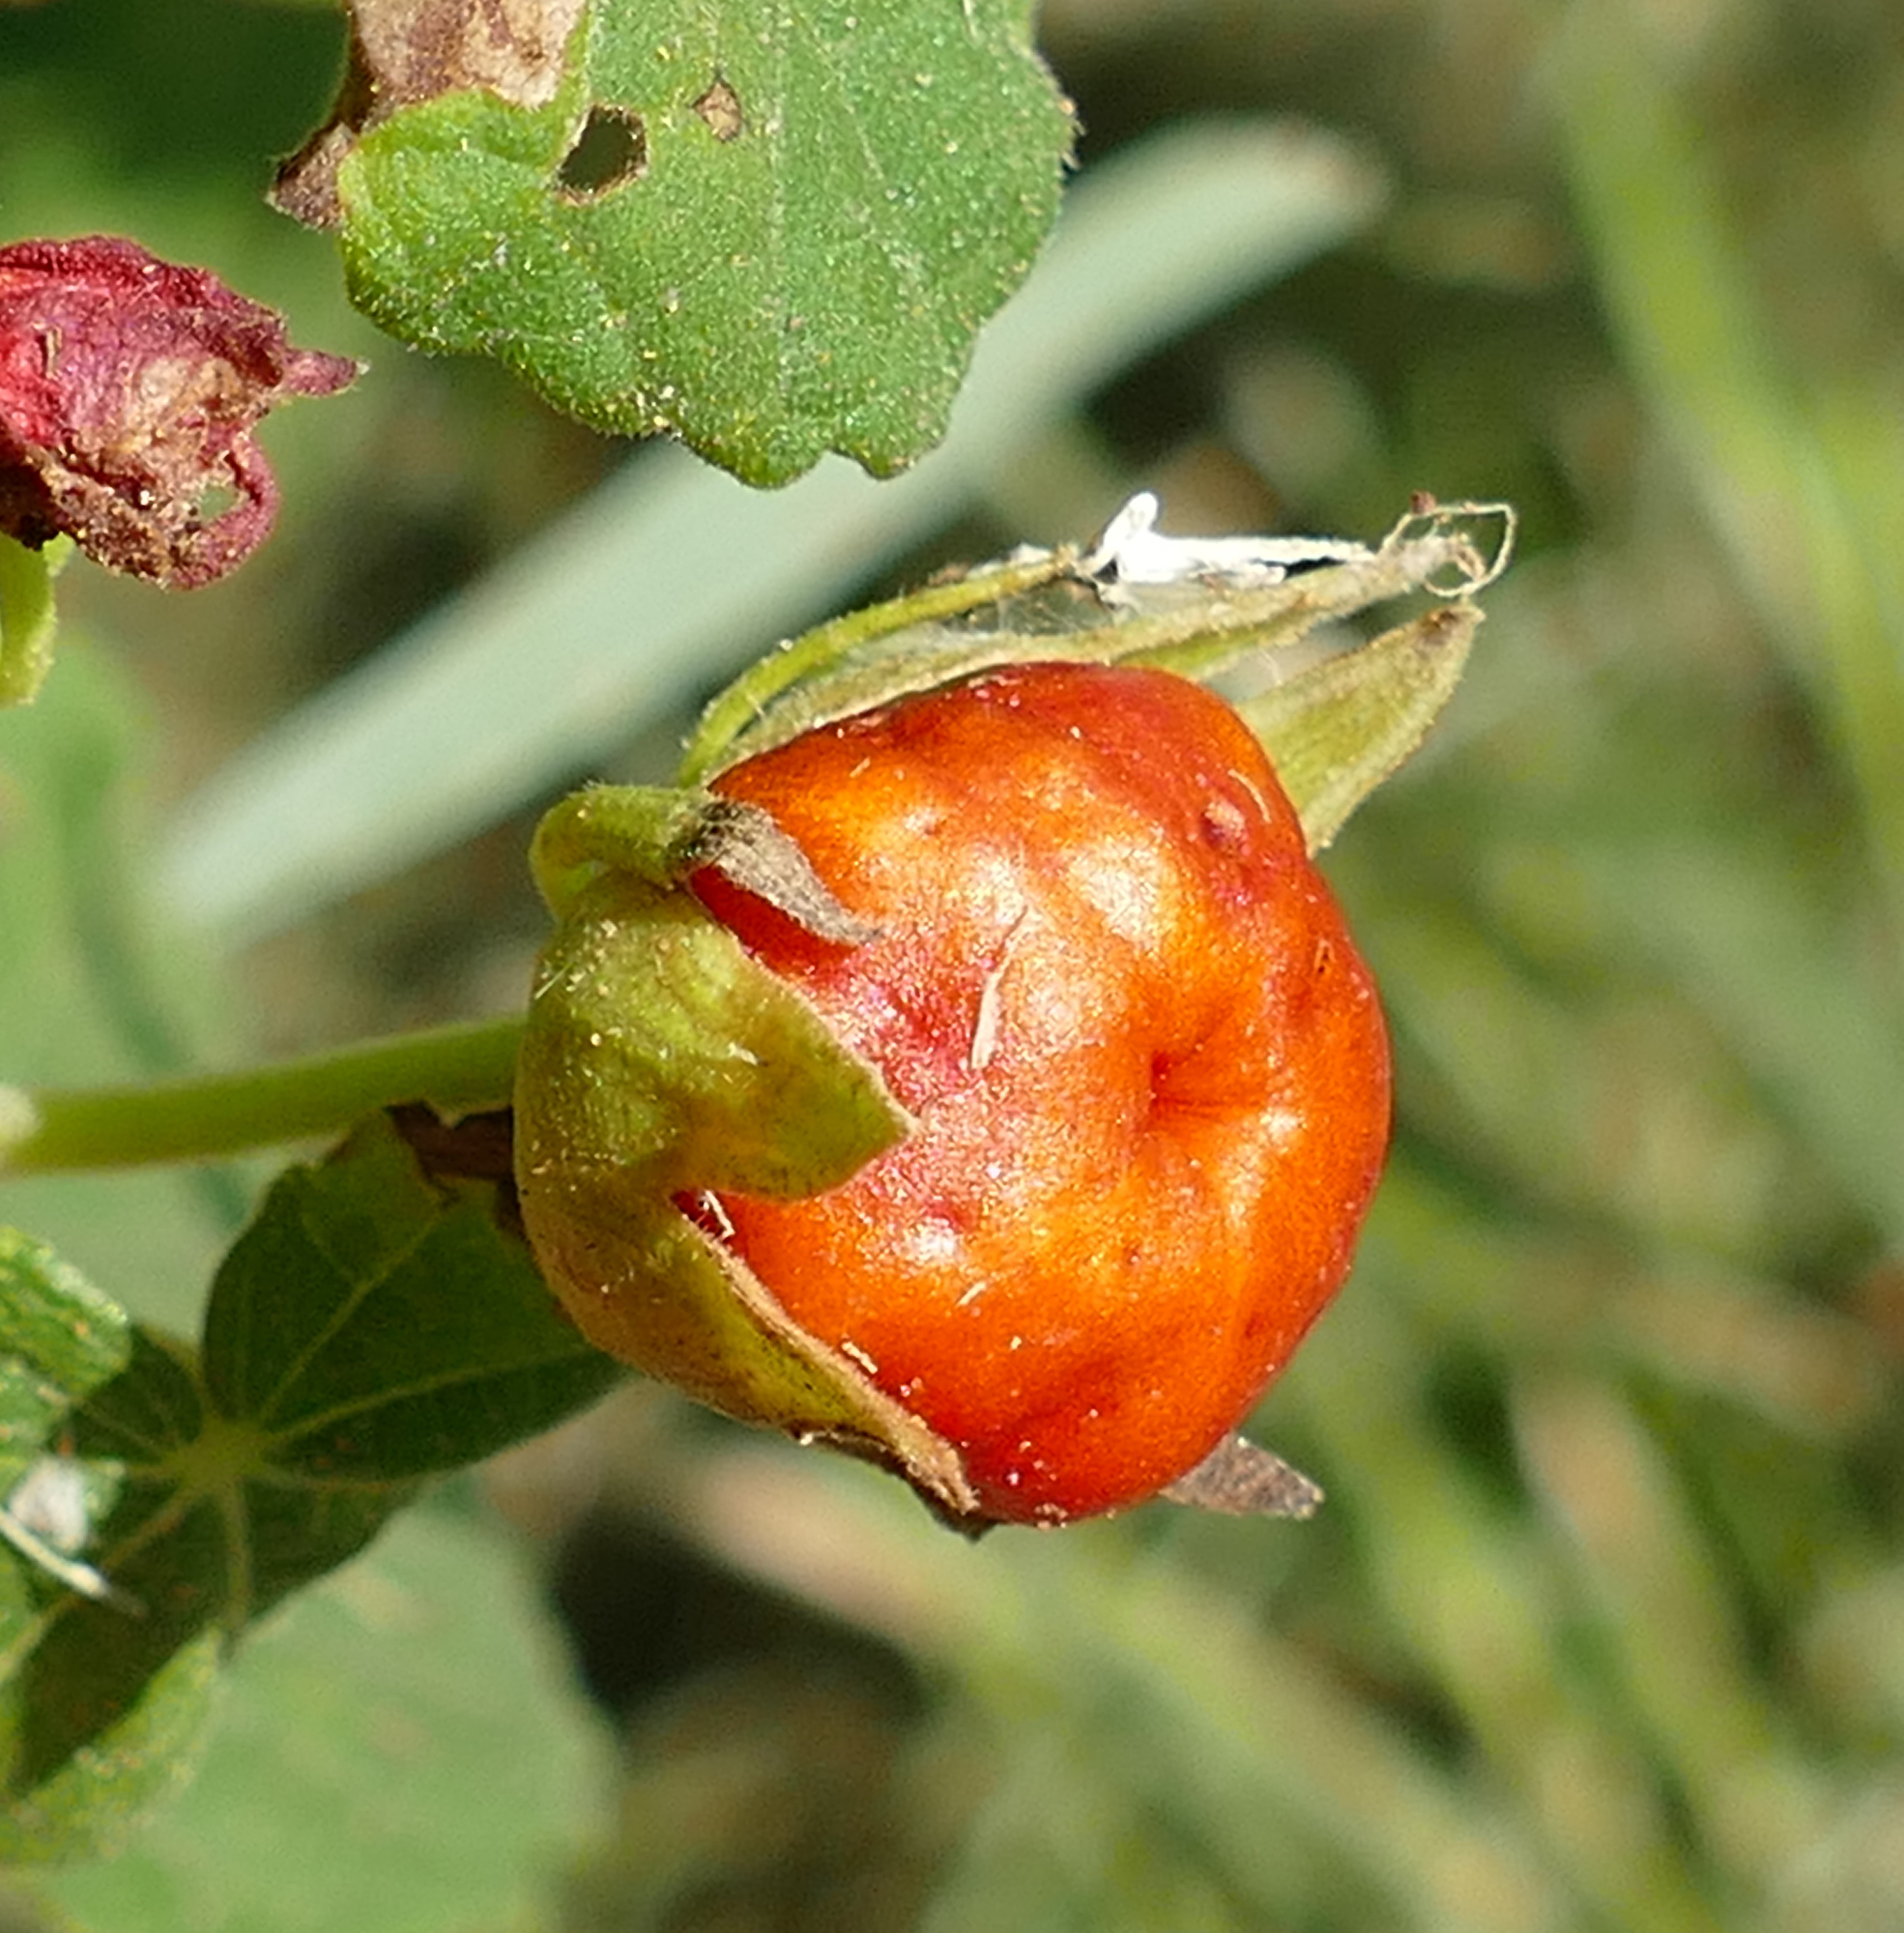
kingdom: Plantae
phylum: Tracheophyta
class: Magnoliopsida
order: Malvales
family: Malvaceae
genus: Malvaviscus
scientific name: Malvaviscus arboreus
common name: Wax mallow
